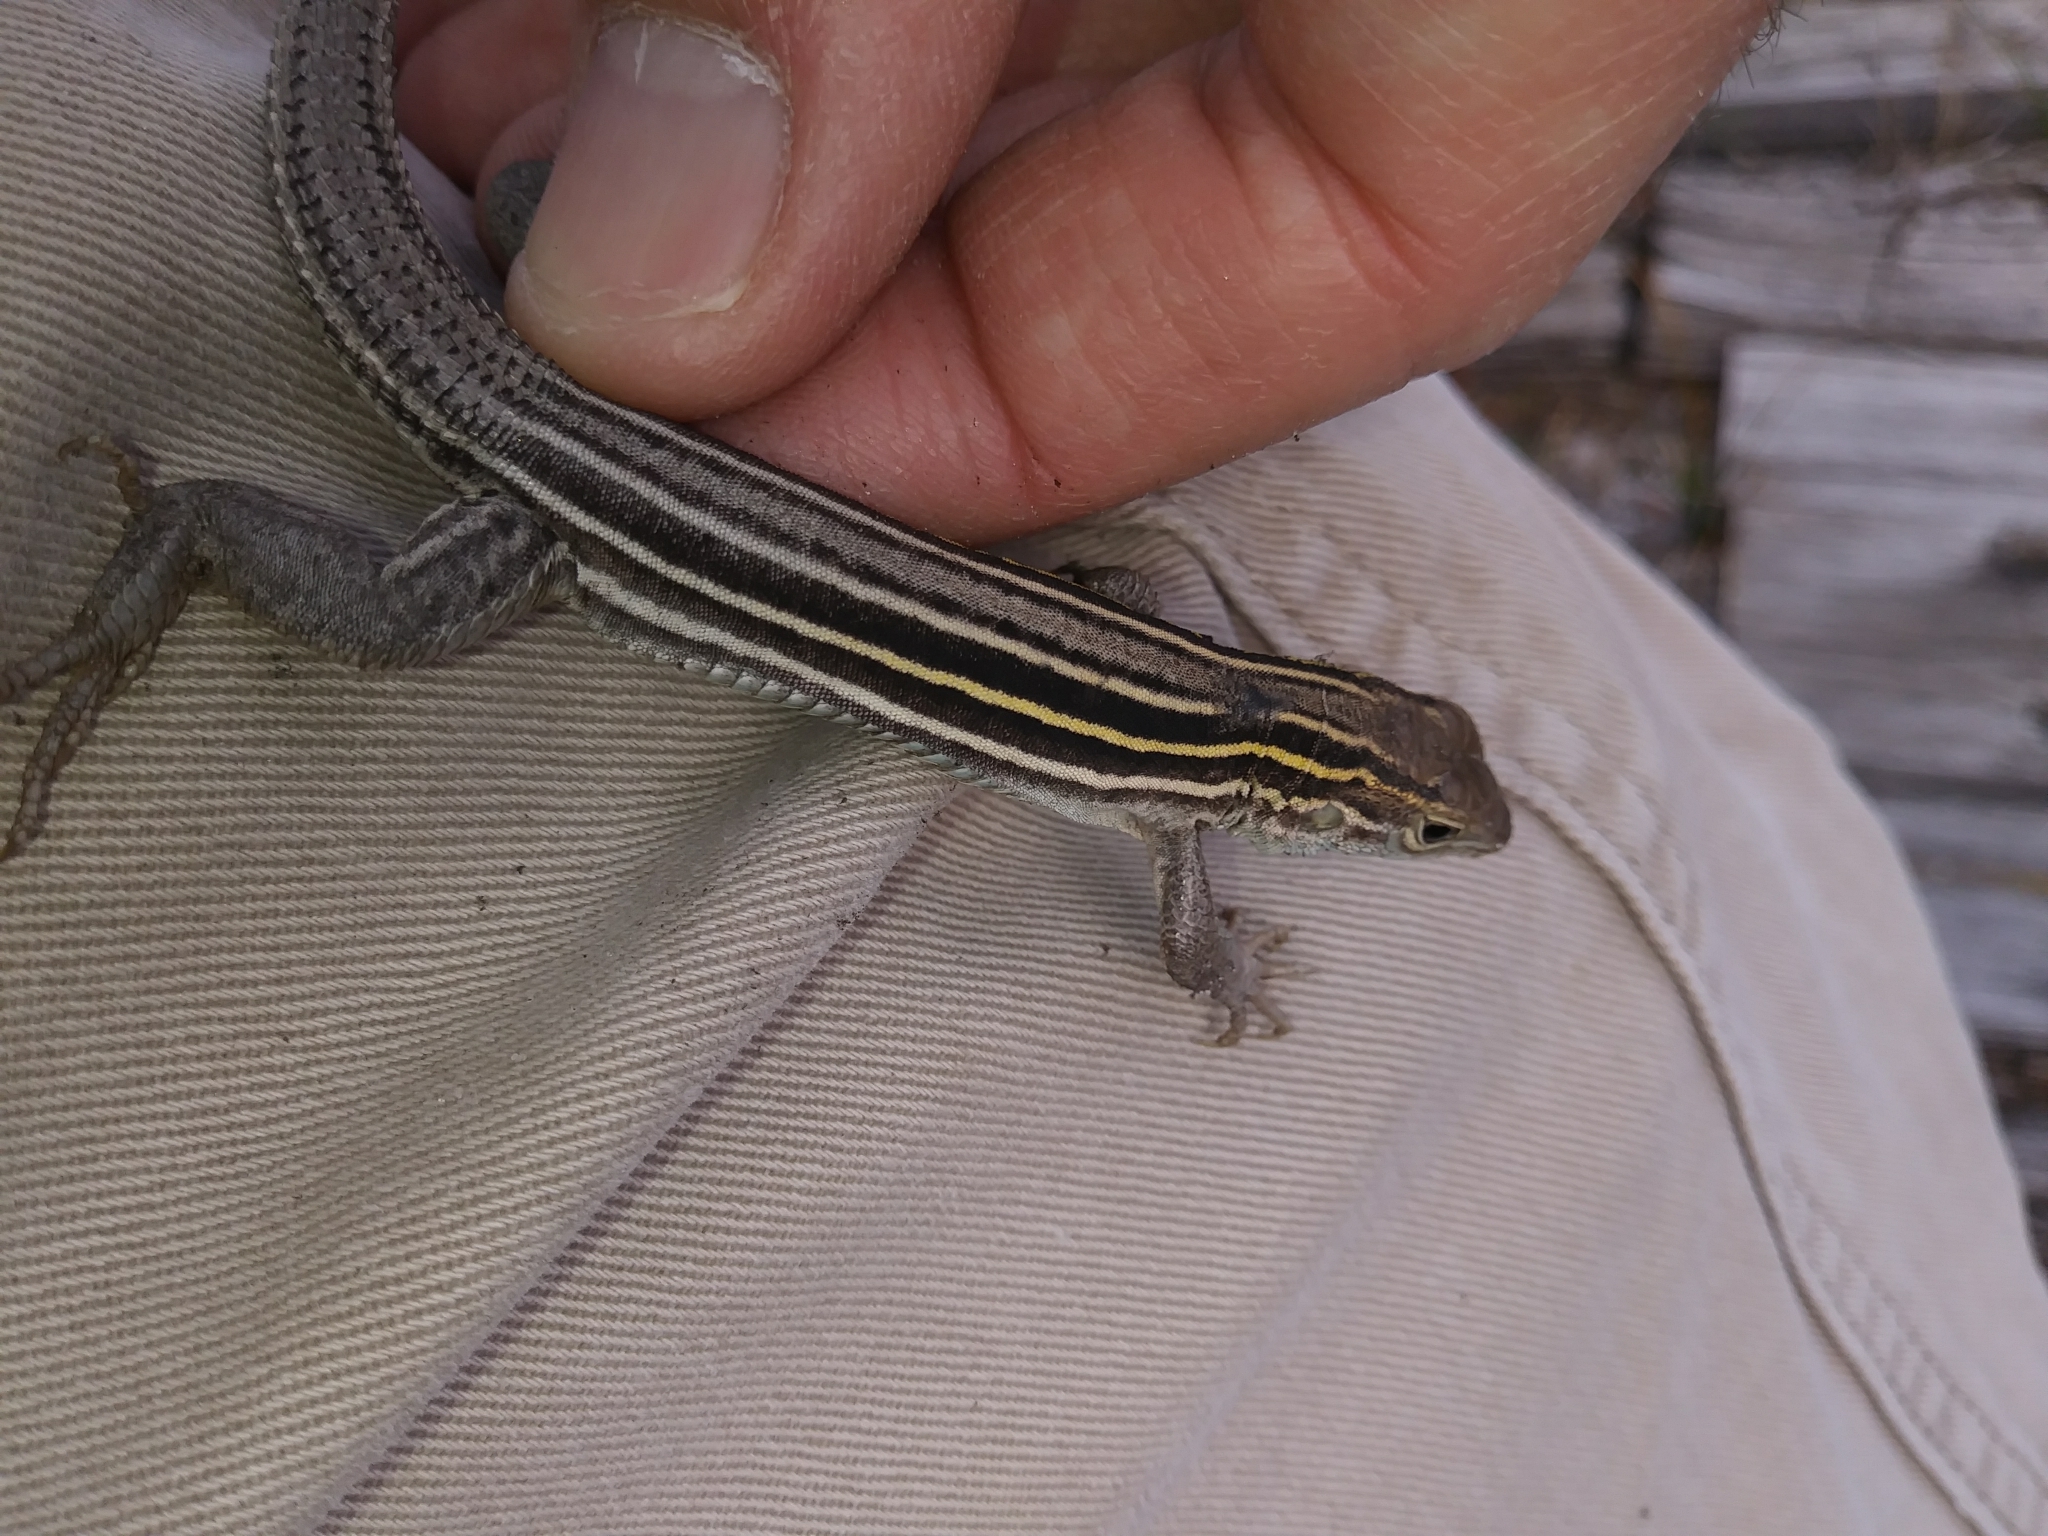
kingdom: Animalia
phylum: Chordata
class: Squamata
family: Teiidae
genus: Aspidoscelis
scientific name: Aspidoscelis sexlineatus
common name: Six-lined racerunner
